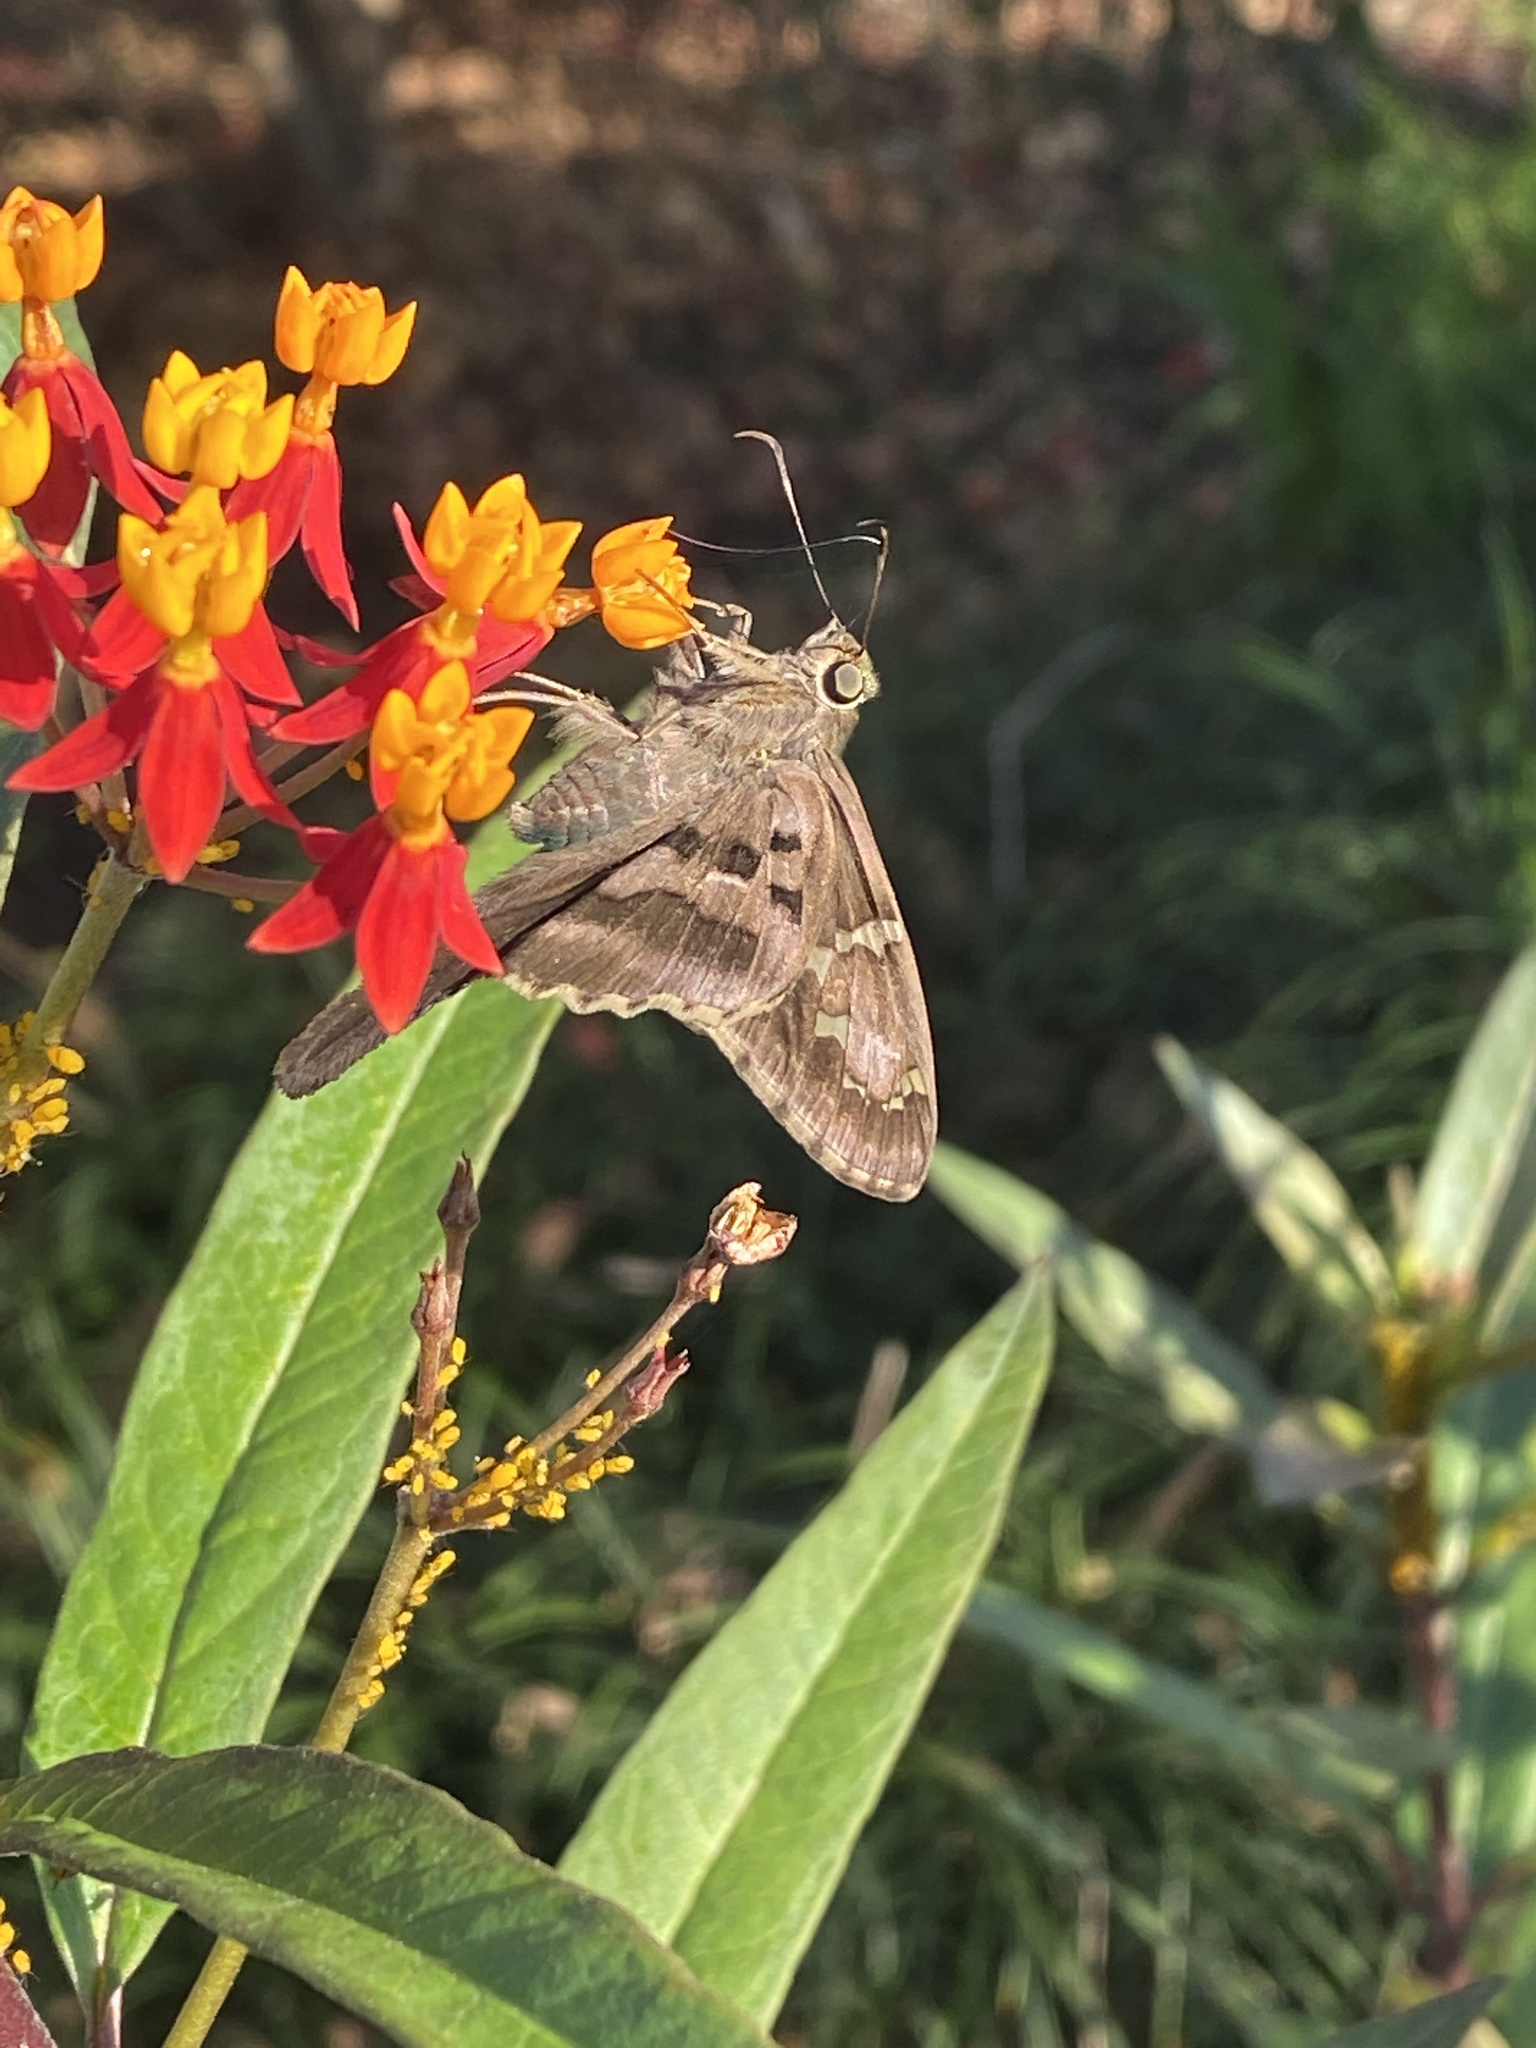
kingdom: Animalia
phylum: Arthropoda
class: Insecta
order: Lepidoptera
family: Hesperiidae
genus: Urbanus
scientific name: Urbanus proteus
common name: Long-tailed skipper
